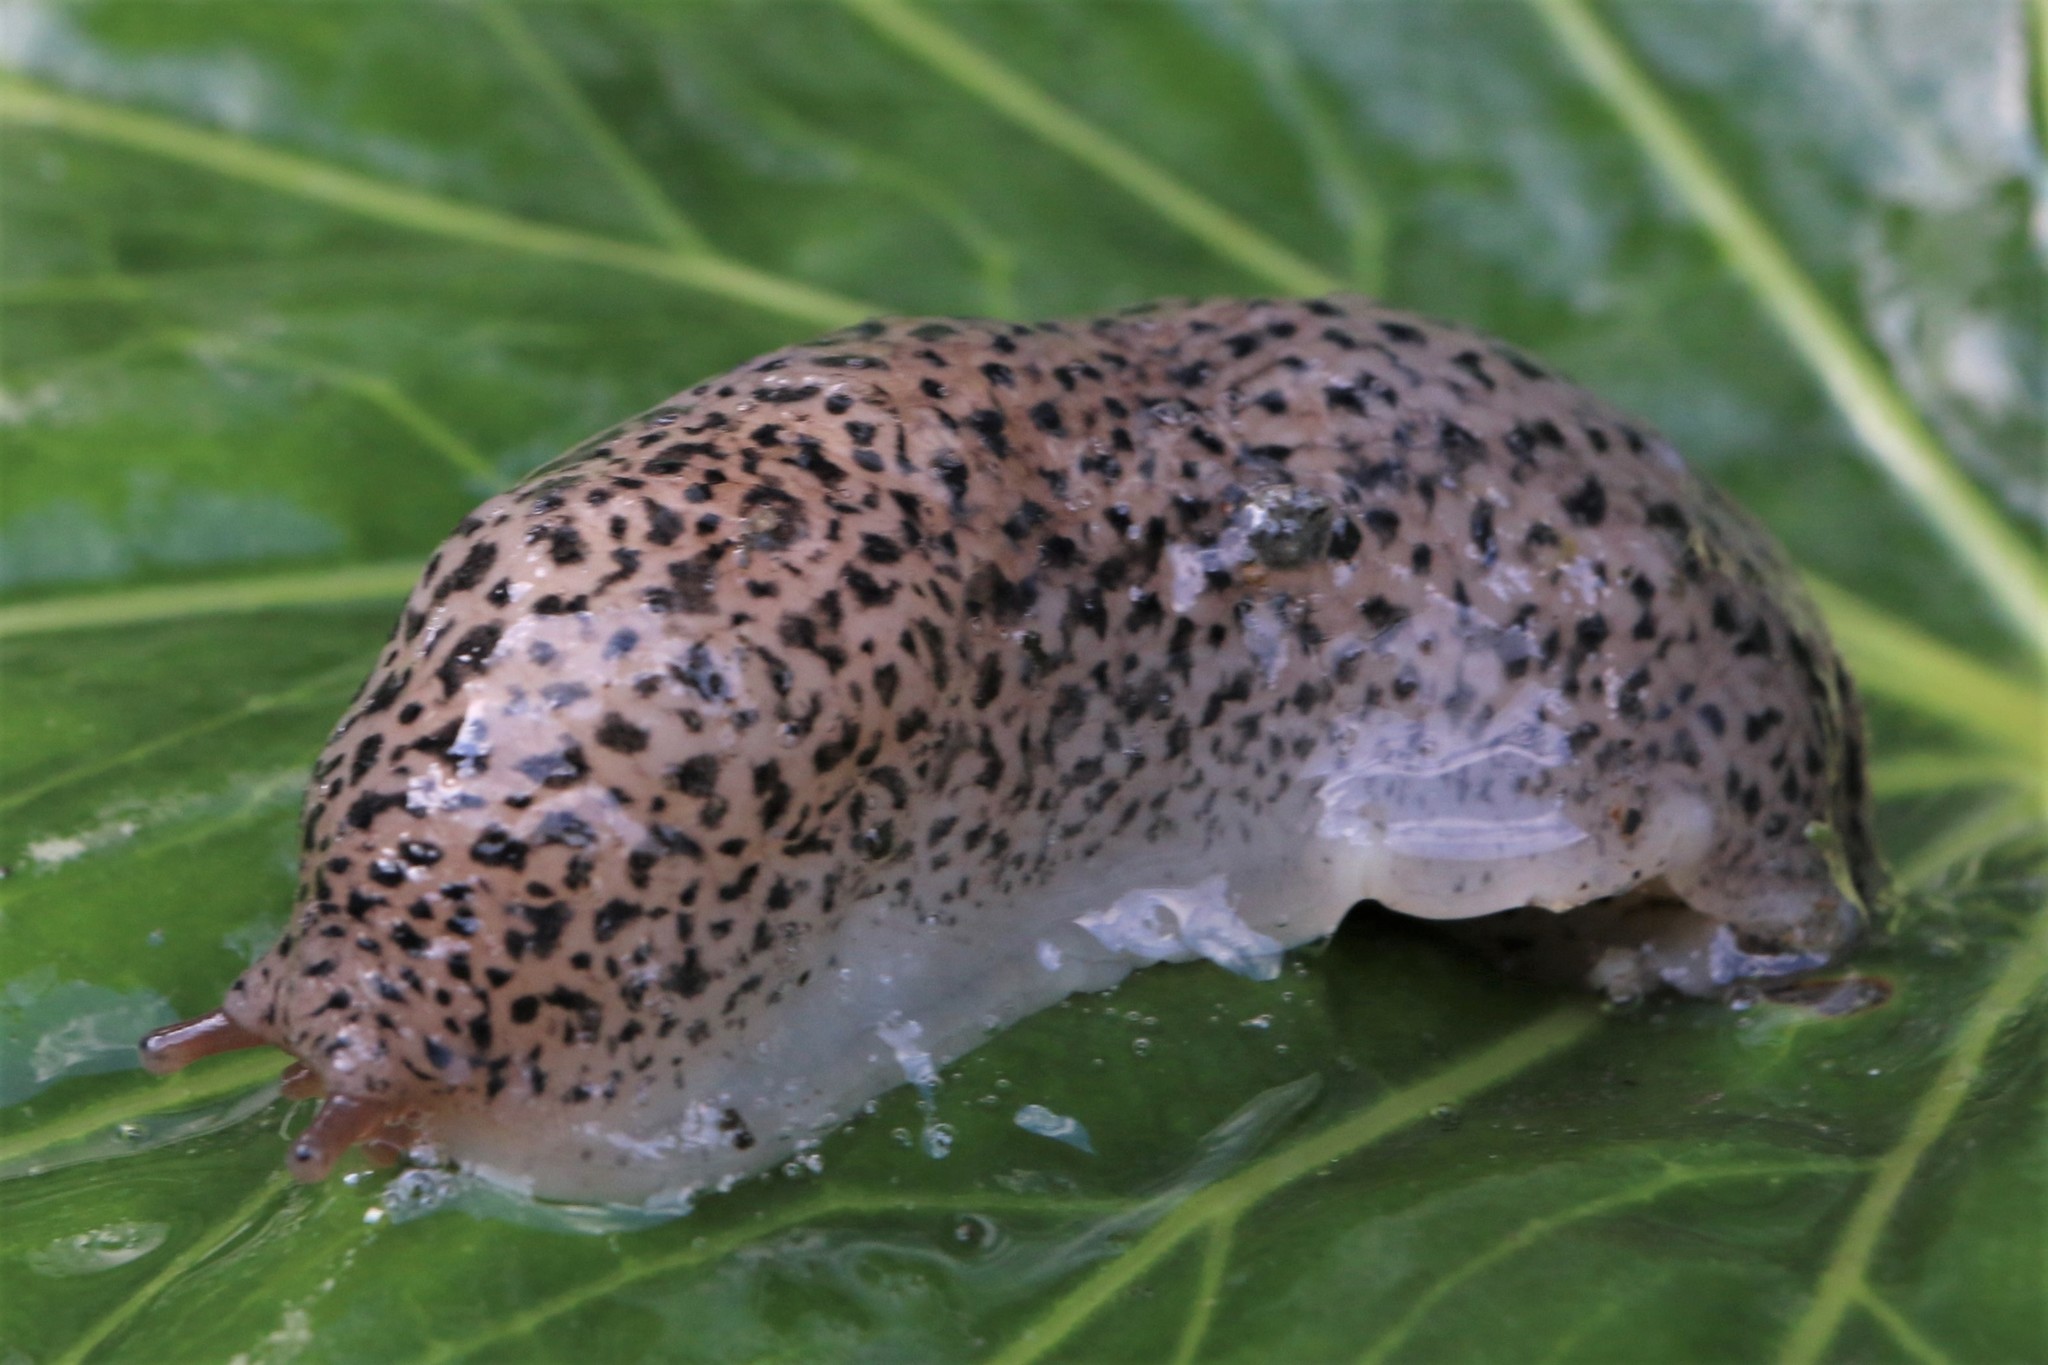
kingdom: Animalia
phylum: Mollusca
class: Gastropoda
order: Stylommatophora
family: Limacidae
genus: Limax
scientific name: Limax maximus
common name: Great grey slug
